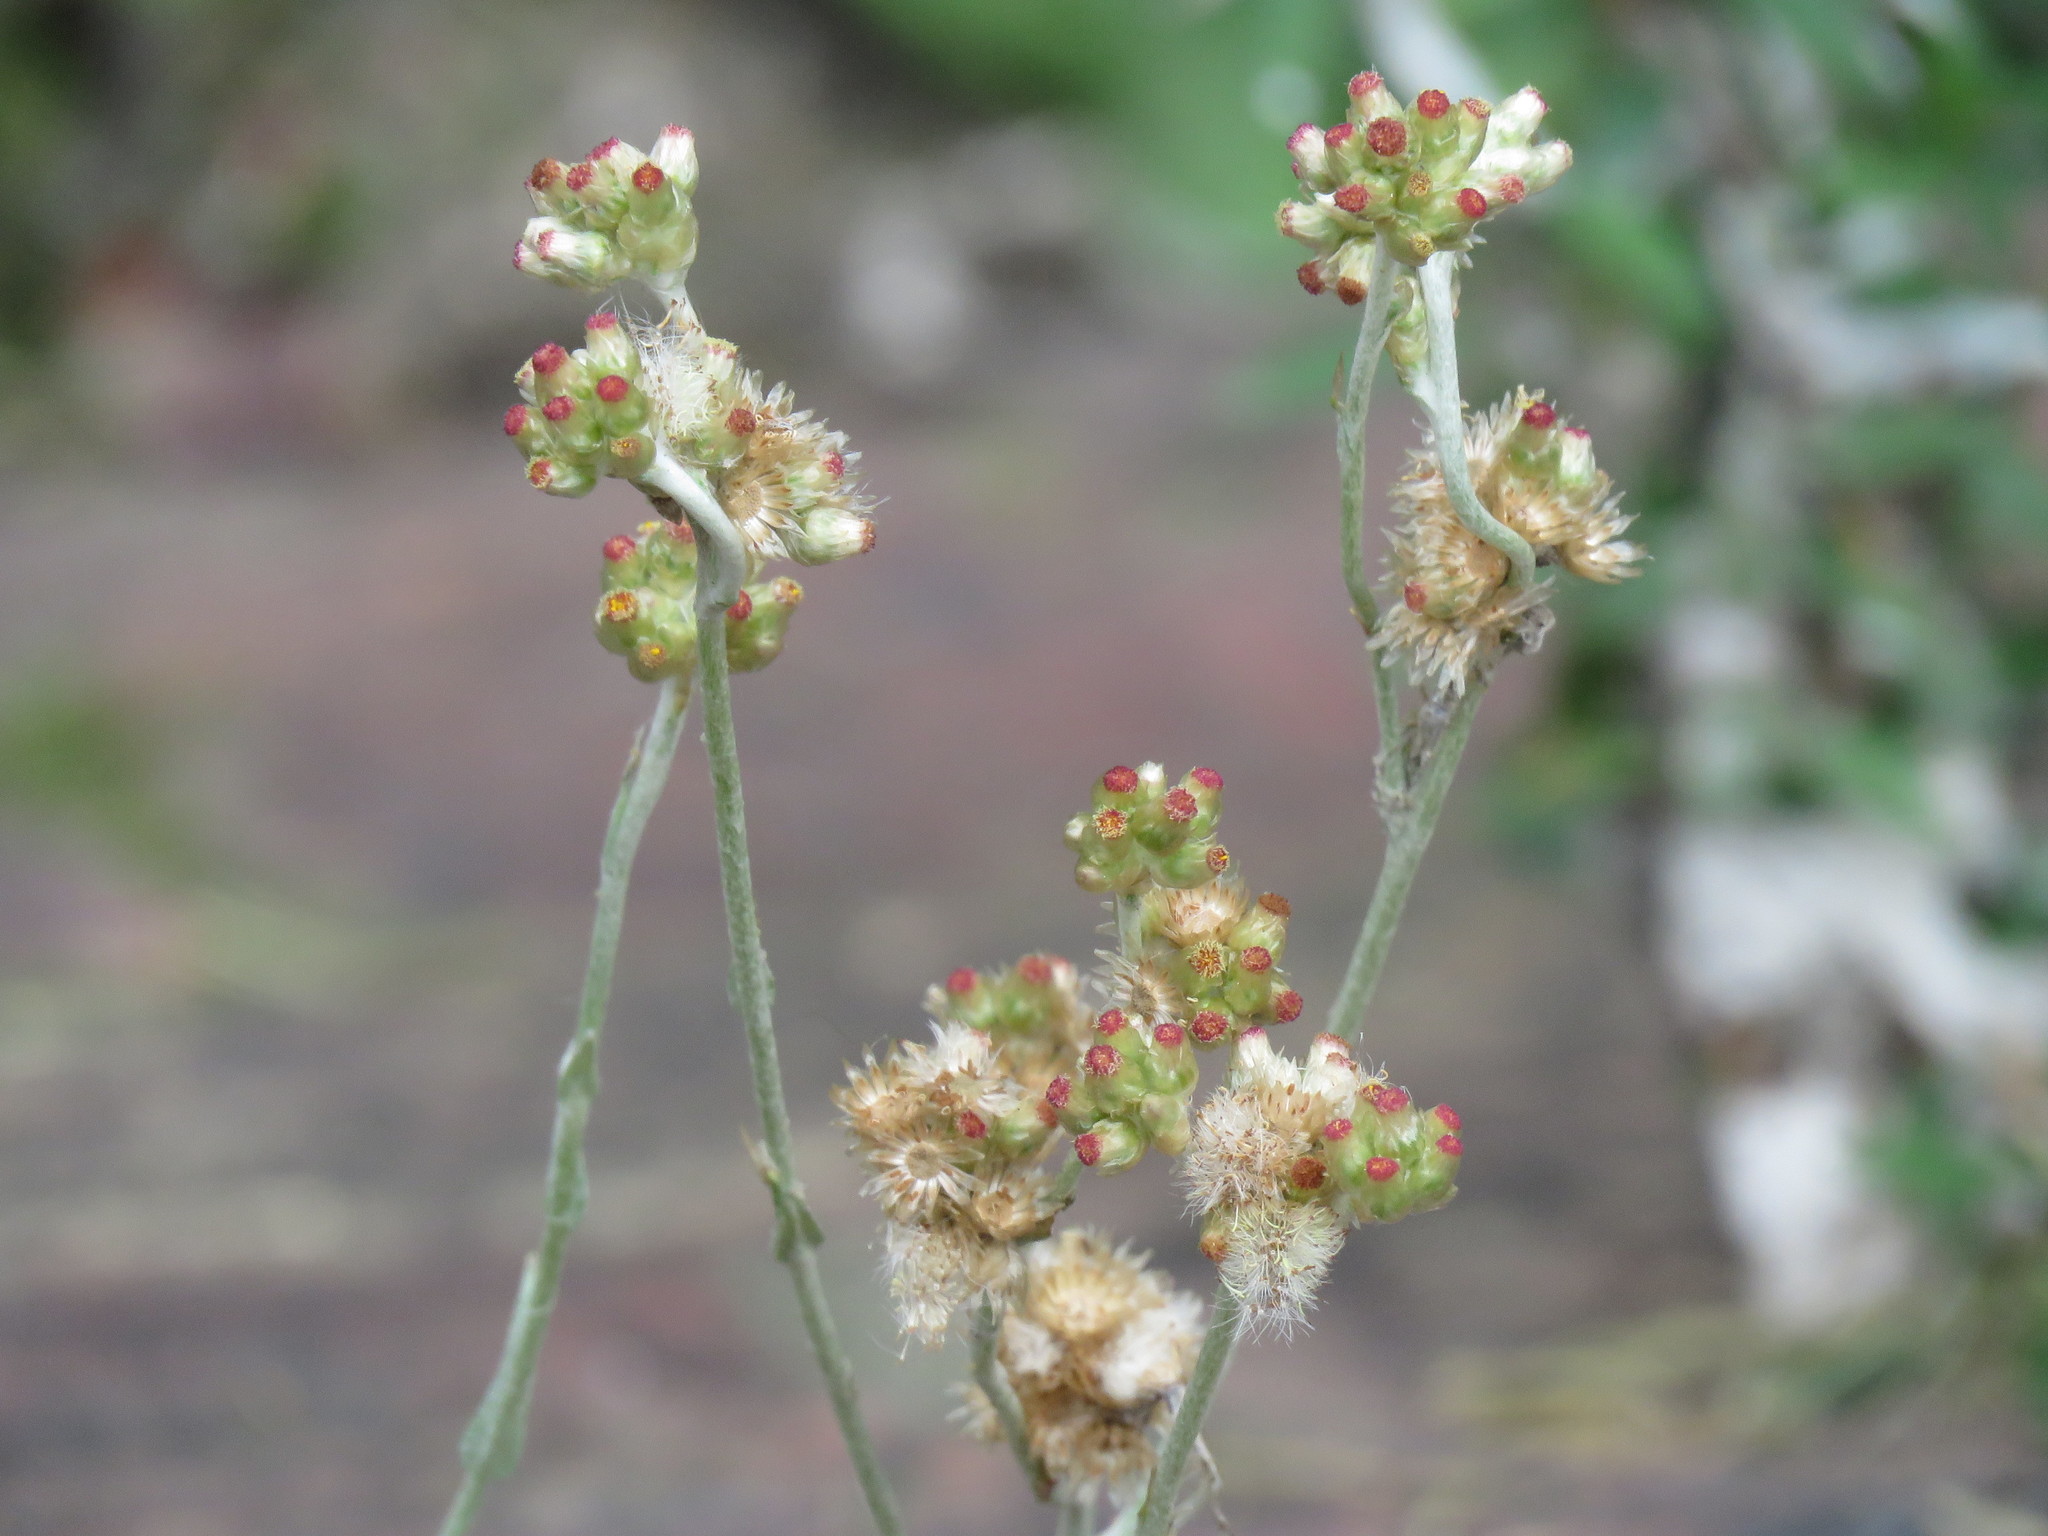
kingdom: Plantae
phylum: Tracheophyta
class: Magnoliopsida
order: Asterales
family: Asteraceae
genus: Helichrysum
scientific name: Helichrysum luteoalbum
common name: Daisy
